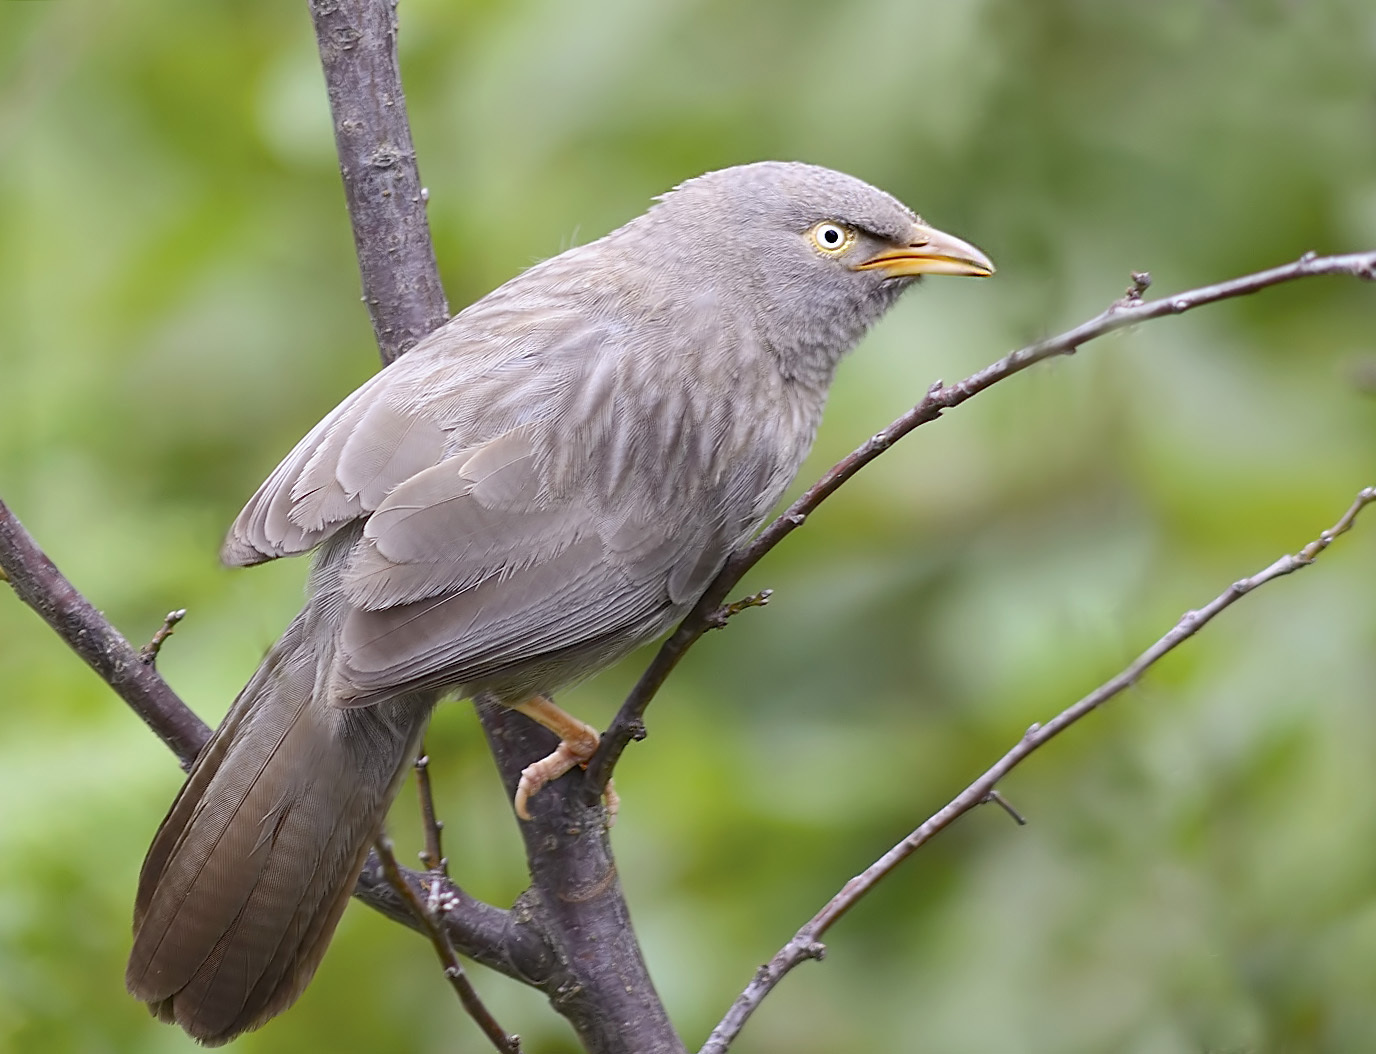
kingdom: Animalia
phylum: Chordata
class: Aves
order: Passeriformes
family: Leiothrichidae
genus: Turdoides
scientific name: Turdoides striata
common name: Jungle babbler
